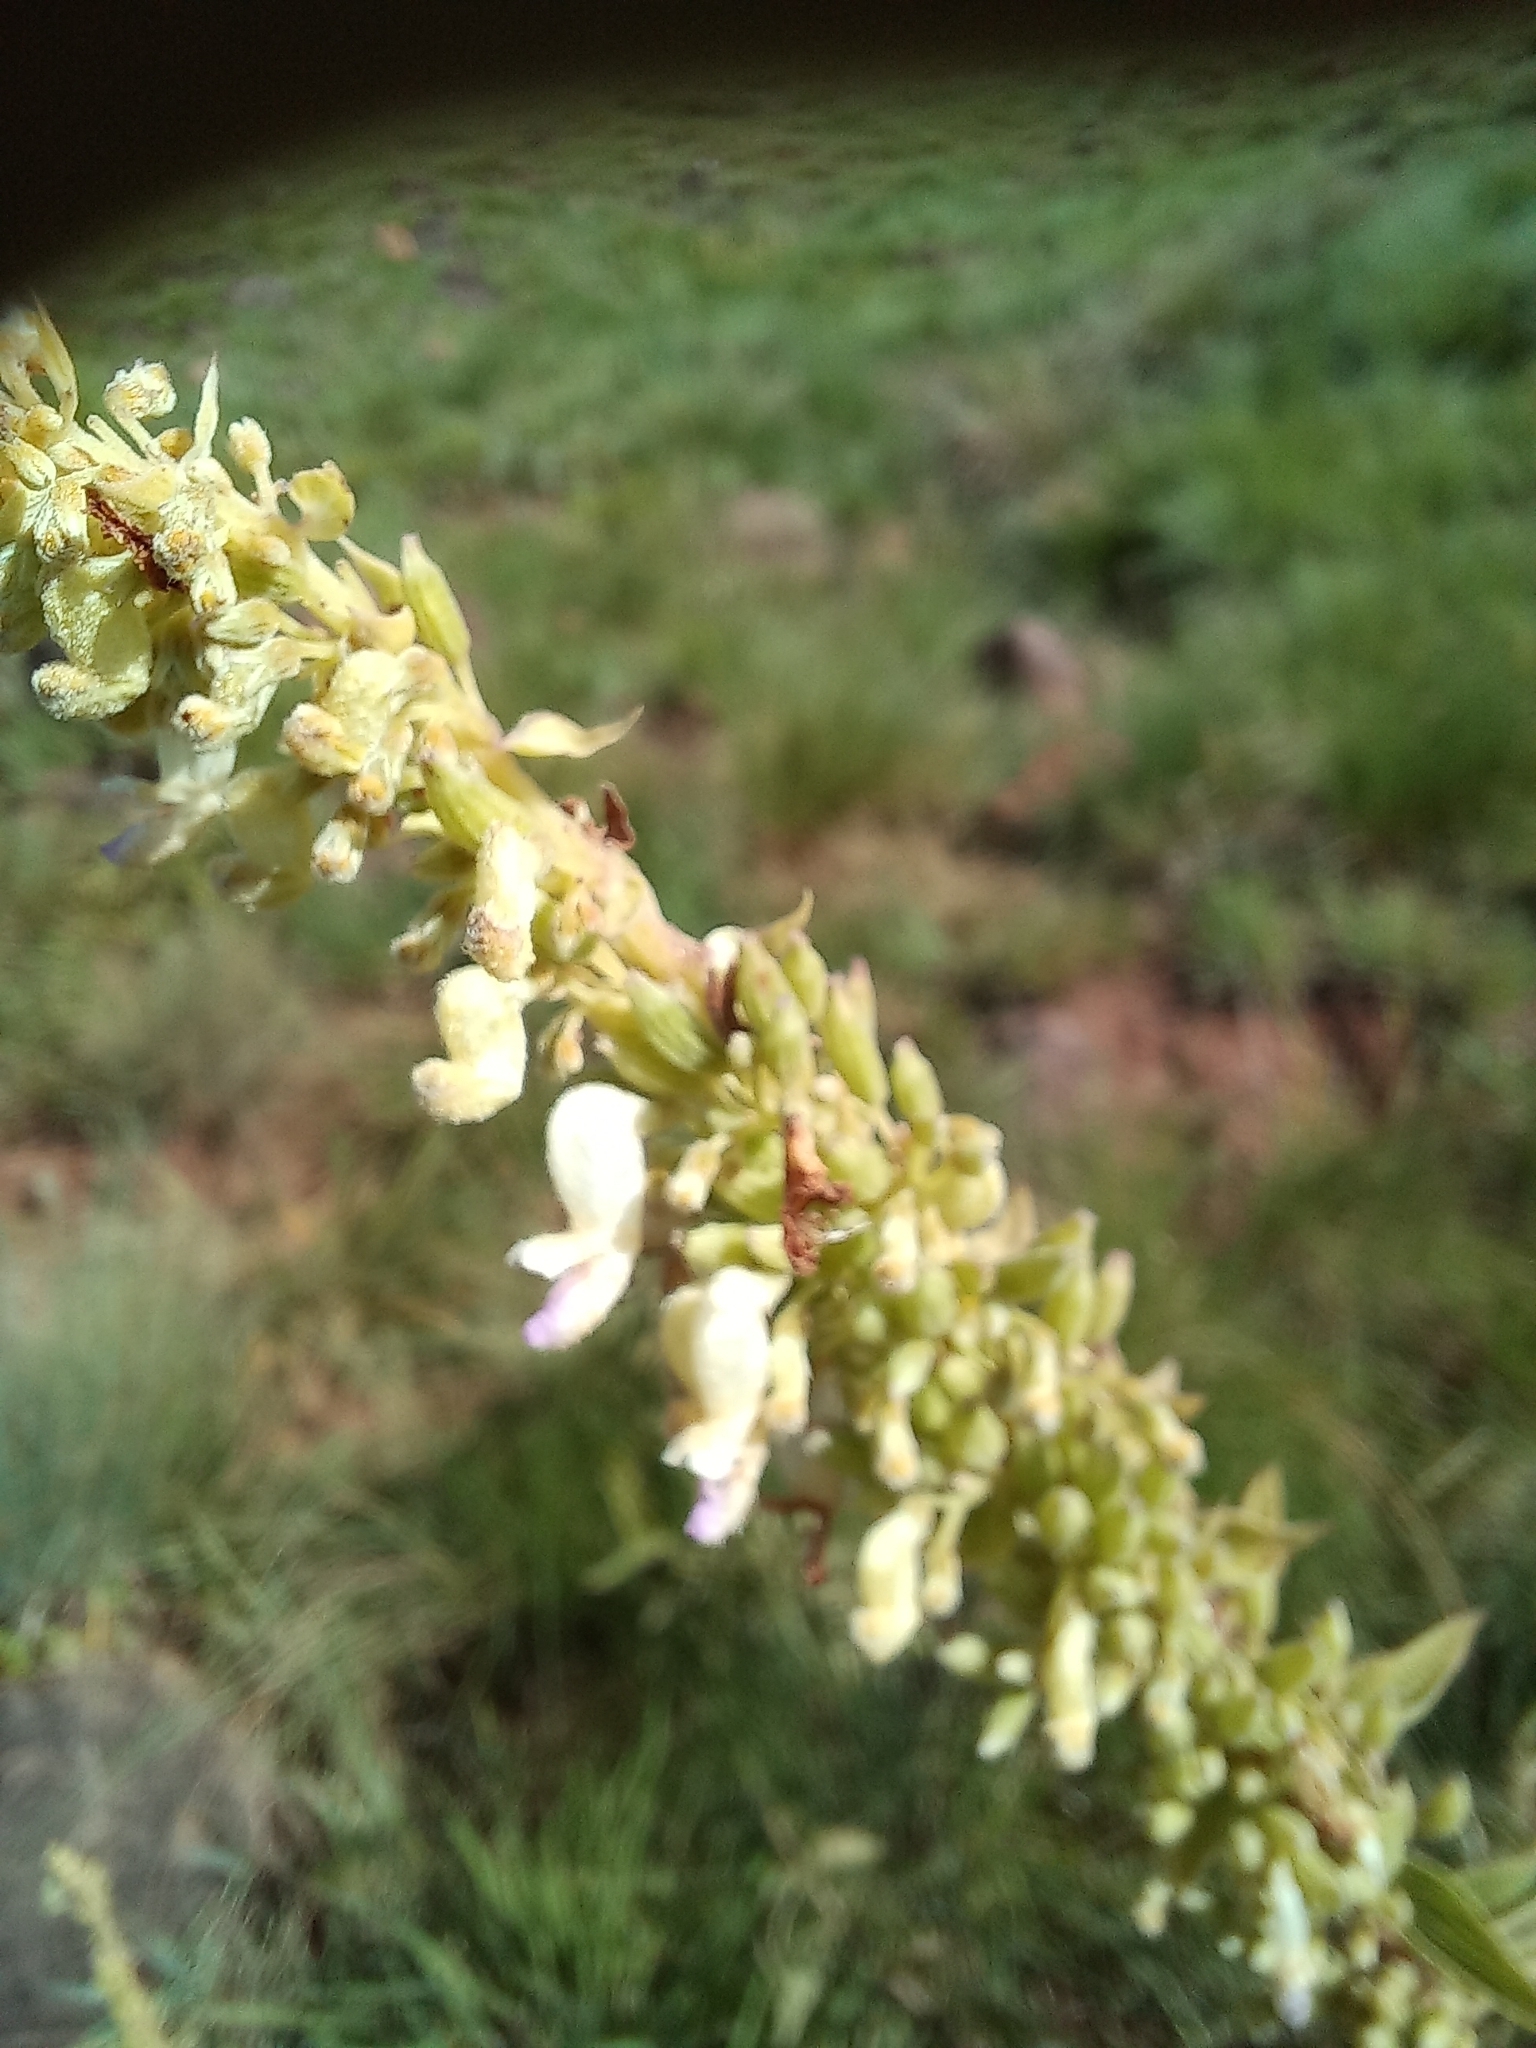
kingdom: Plantae
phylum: Tracheophyta
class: Magnoliopsida
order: Lamiales
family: Lamiaceae
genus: Coleus
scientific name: Coleus calycinus
